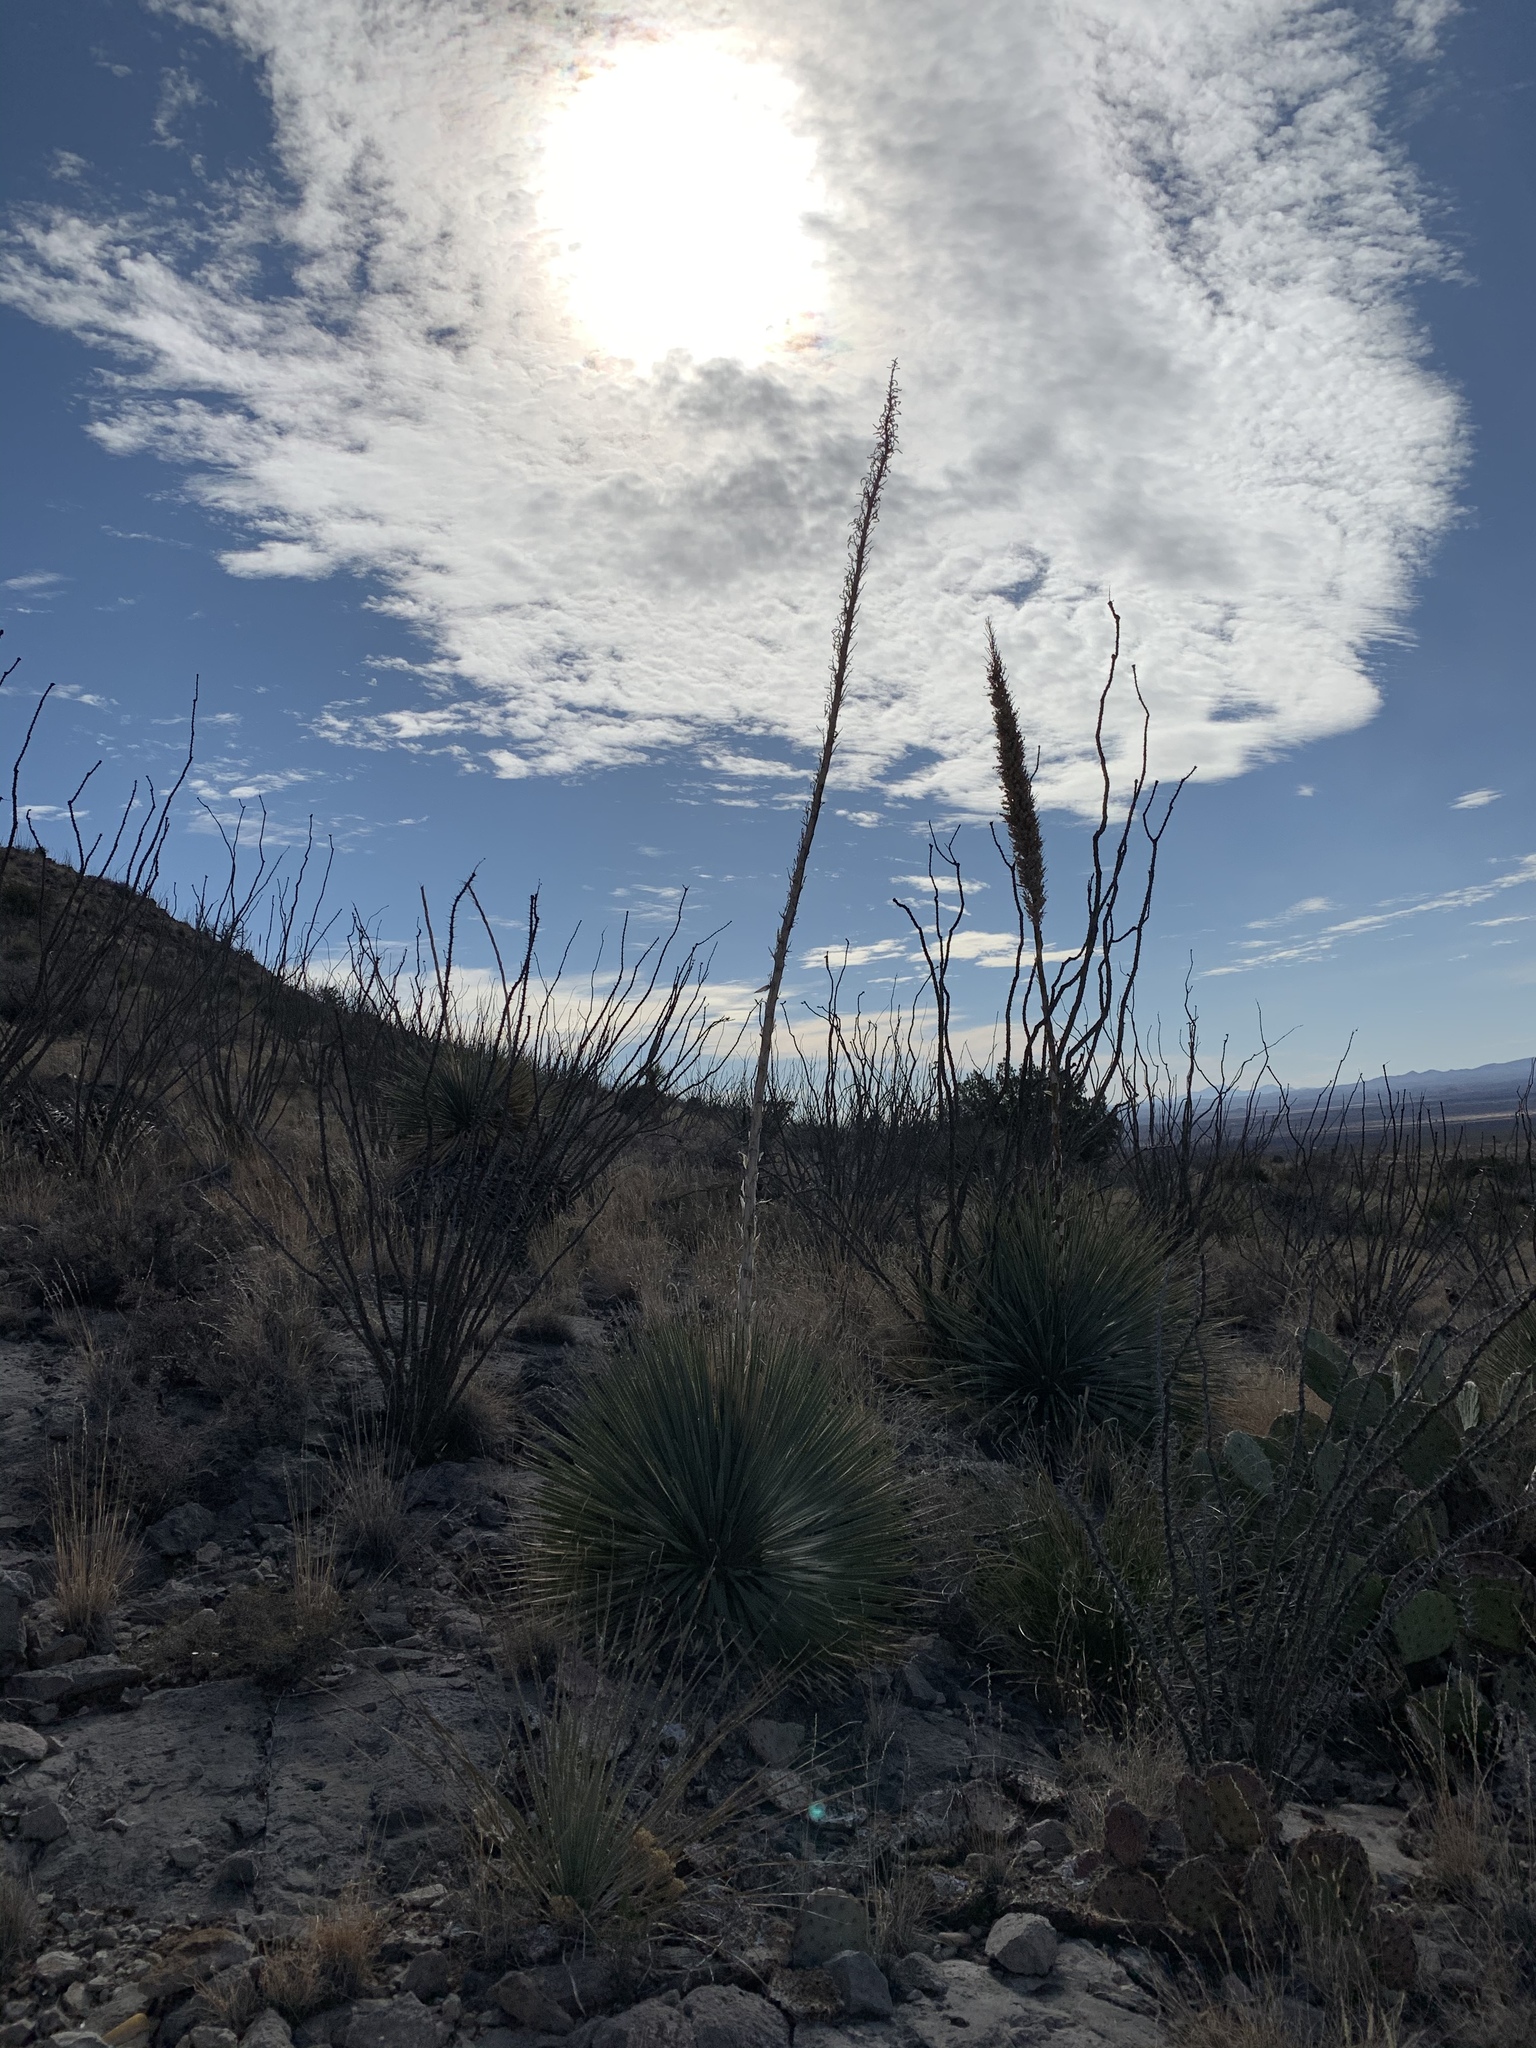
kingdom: Plantae
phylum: Tracheophyta
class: Liliopsida
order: Asparagales
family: Asparagaceae
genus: Dasylirion
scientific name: Dasylirion wheeleri
